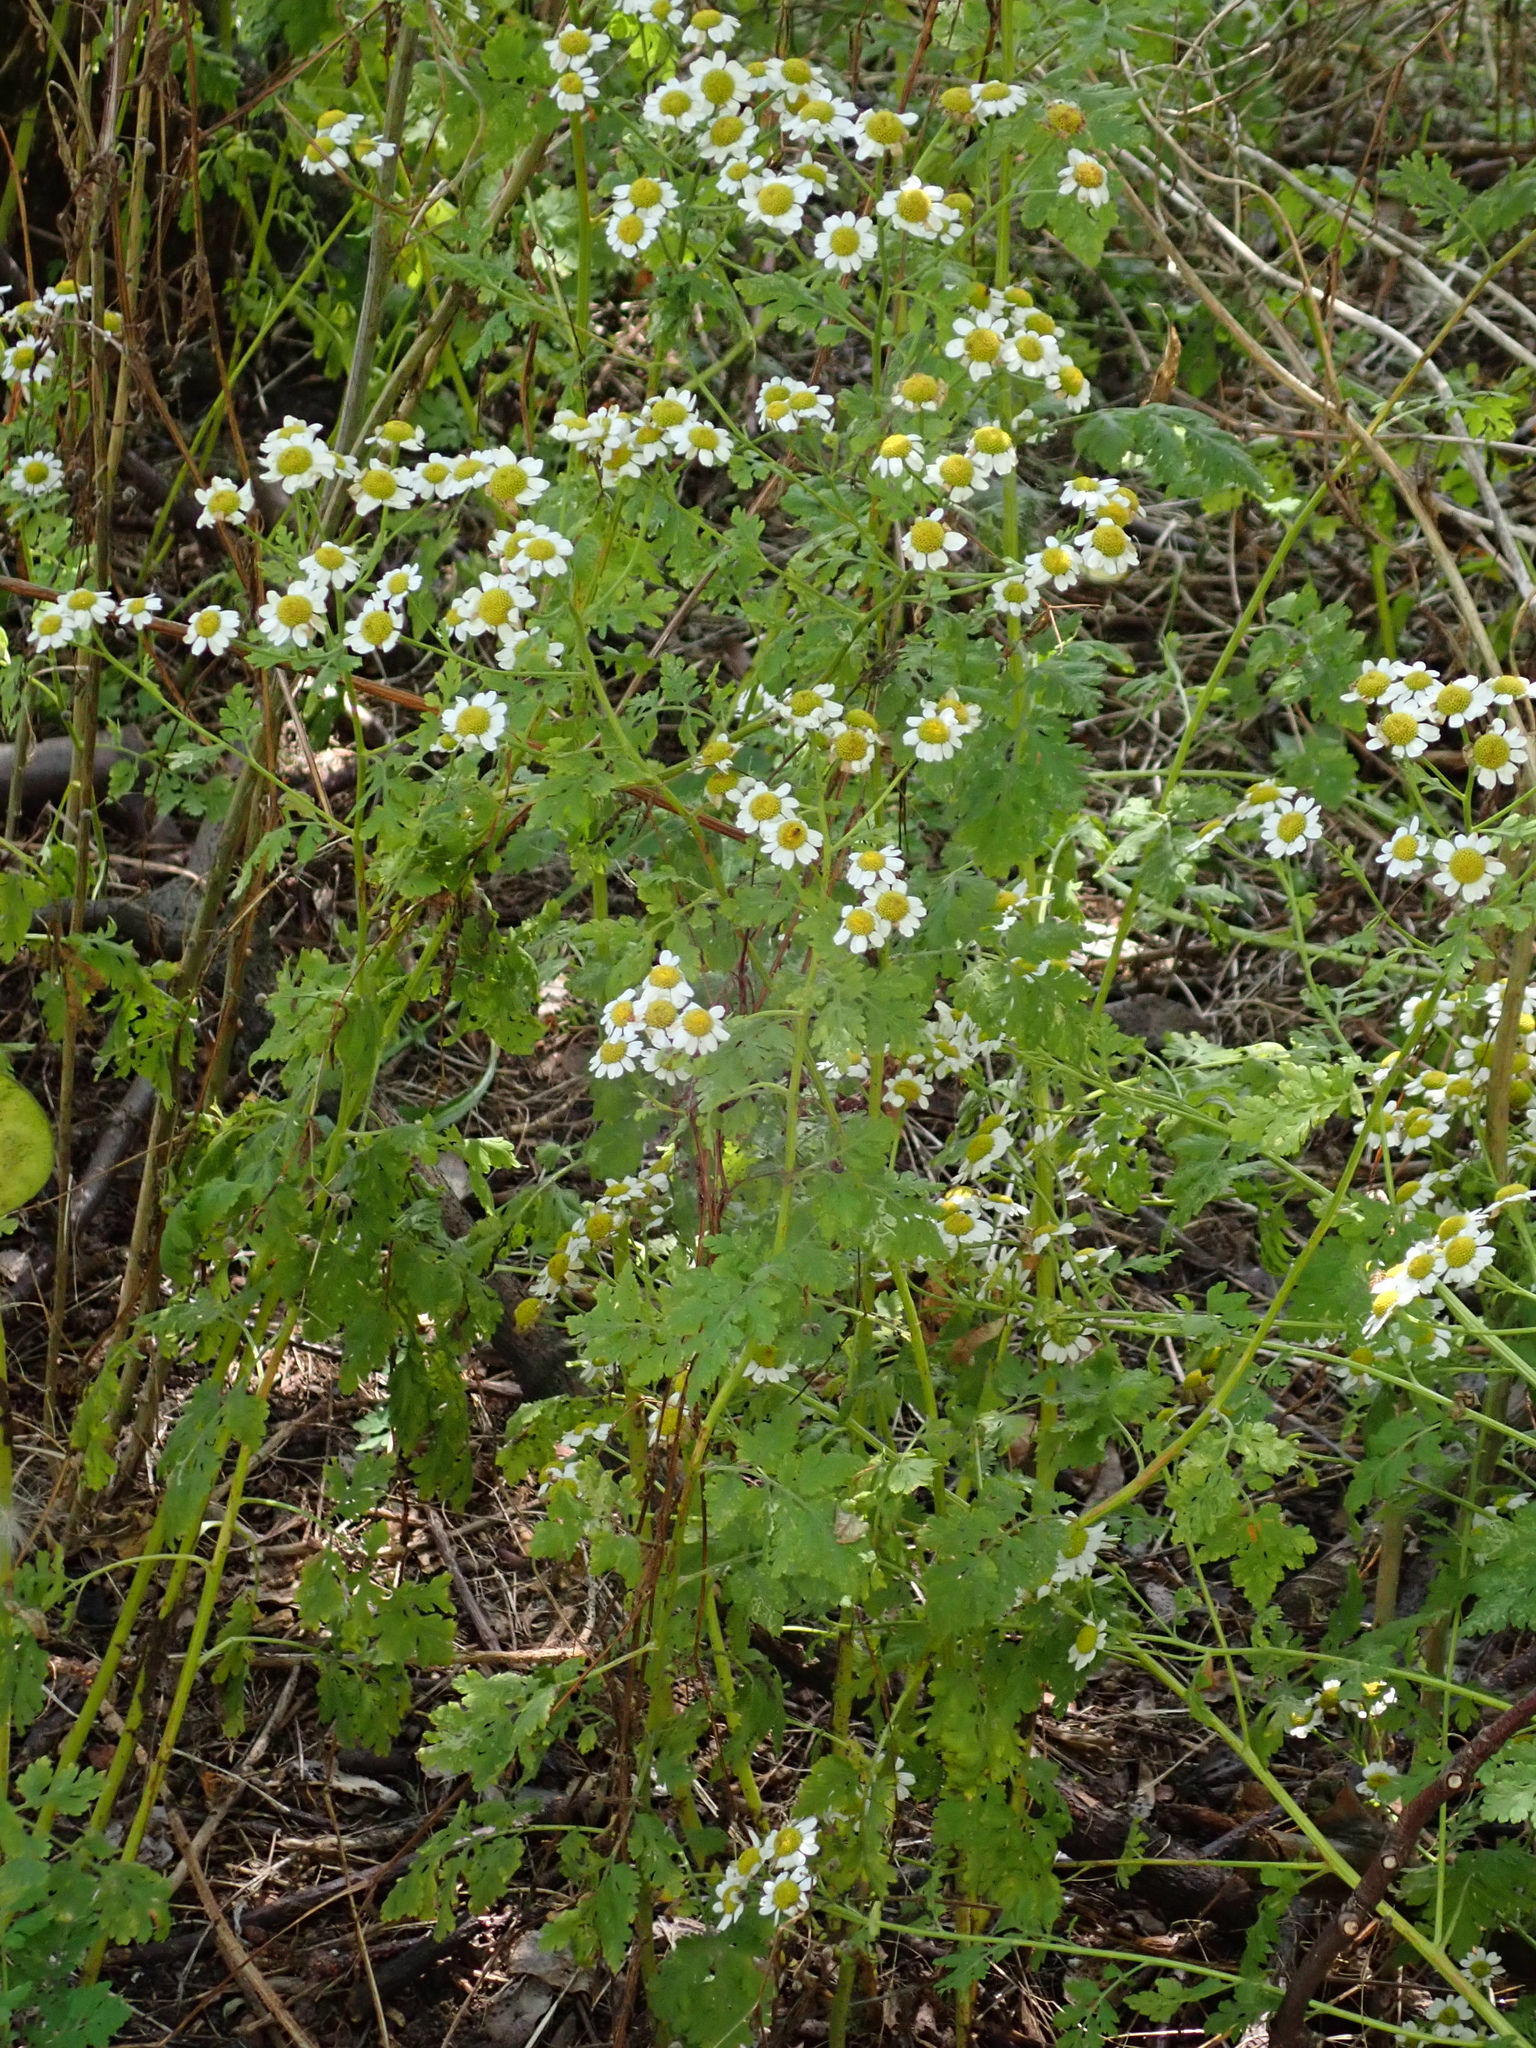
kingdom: Plantae
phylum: Tracheophyta
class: Magnoliopsida
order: Asterales
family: Asteraceae
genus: Tanacetum
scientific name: Tanacetum parthenium
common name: Feverfew
